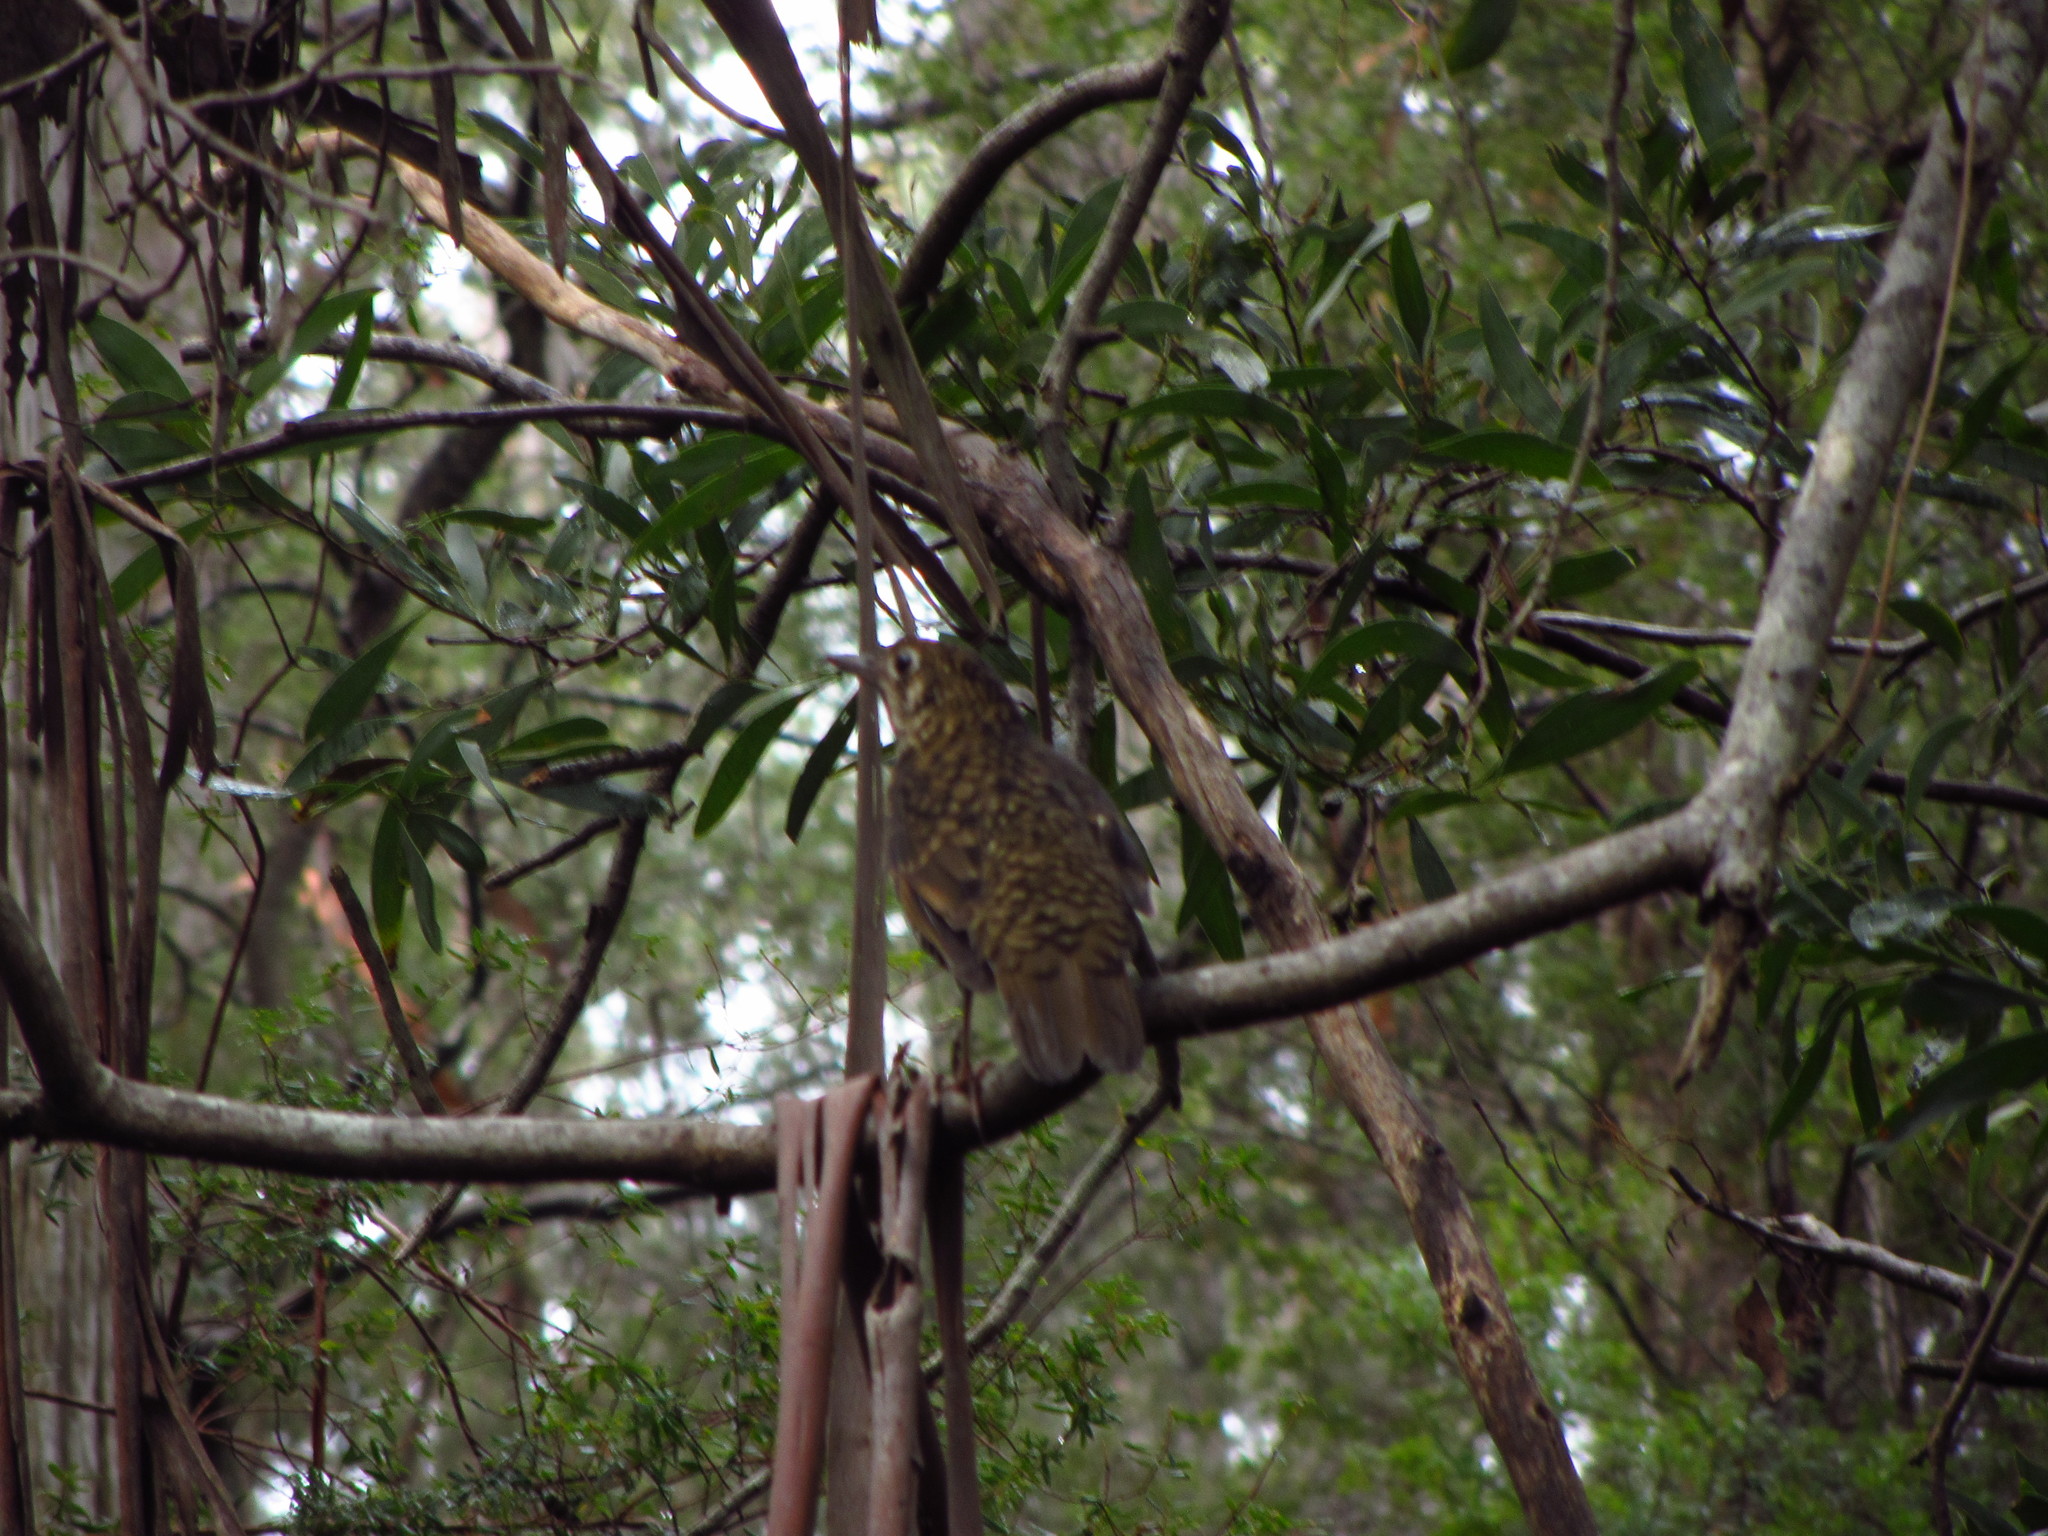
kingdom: Animalia
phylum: Chordata
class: Aves
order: Passeriformes
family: Turdidae
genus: Zoothera
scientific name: Zoothera lunulata
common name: Bassian thrush
